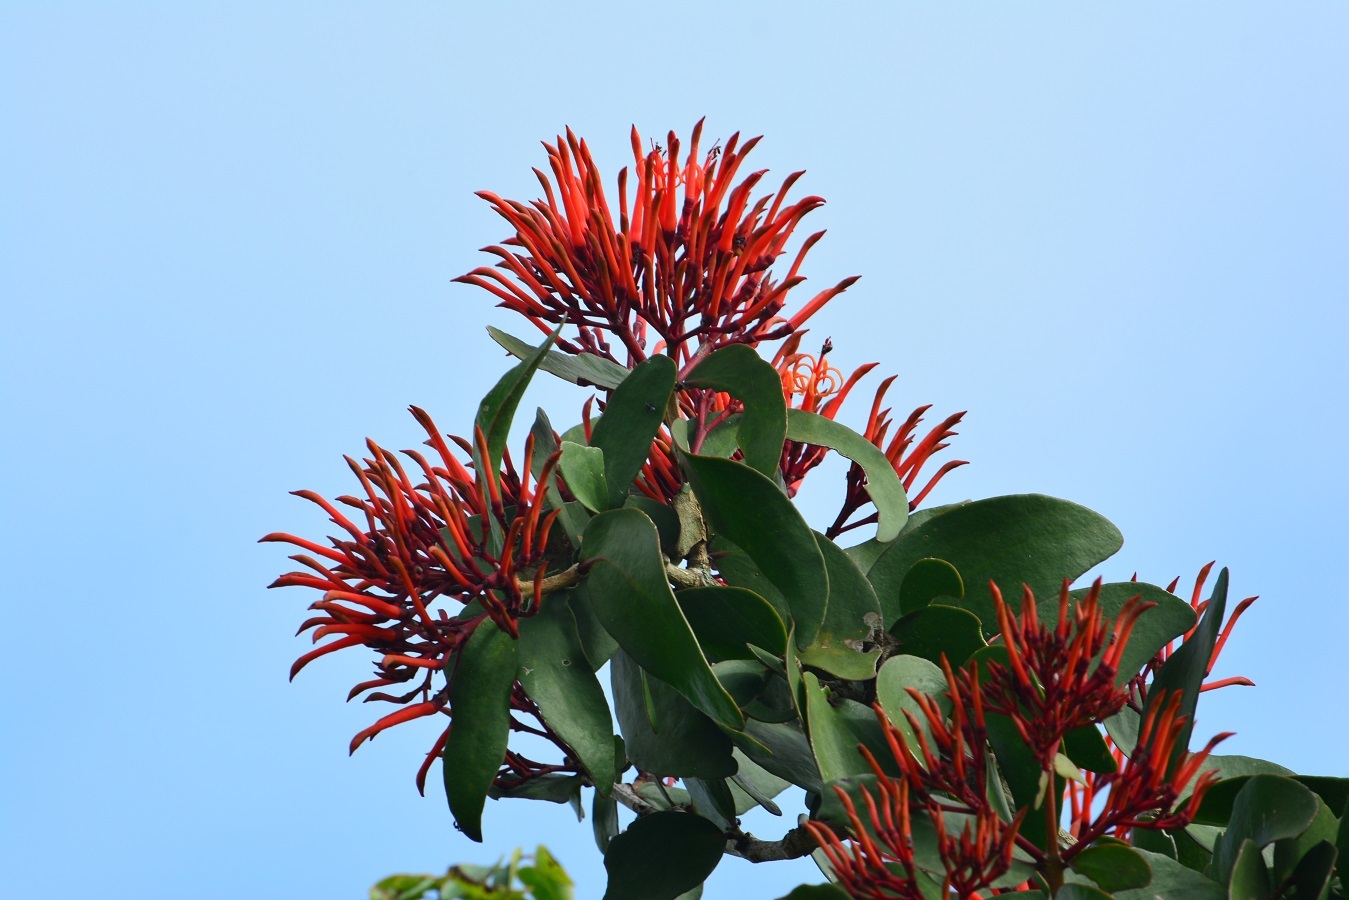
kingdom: Plantae
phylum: Tracheophyta
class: Magnoliopsida
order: Santalales
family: Loranthaceae
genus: Psittacanthus
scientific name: Psittacanthus rhynchanthus
